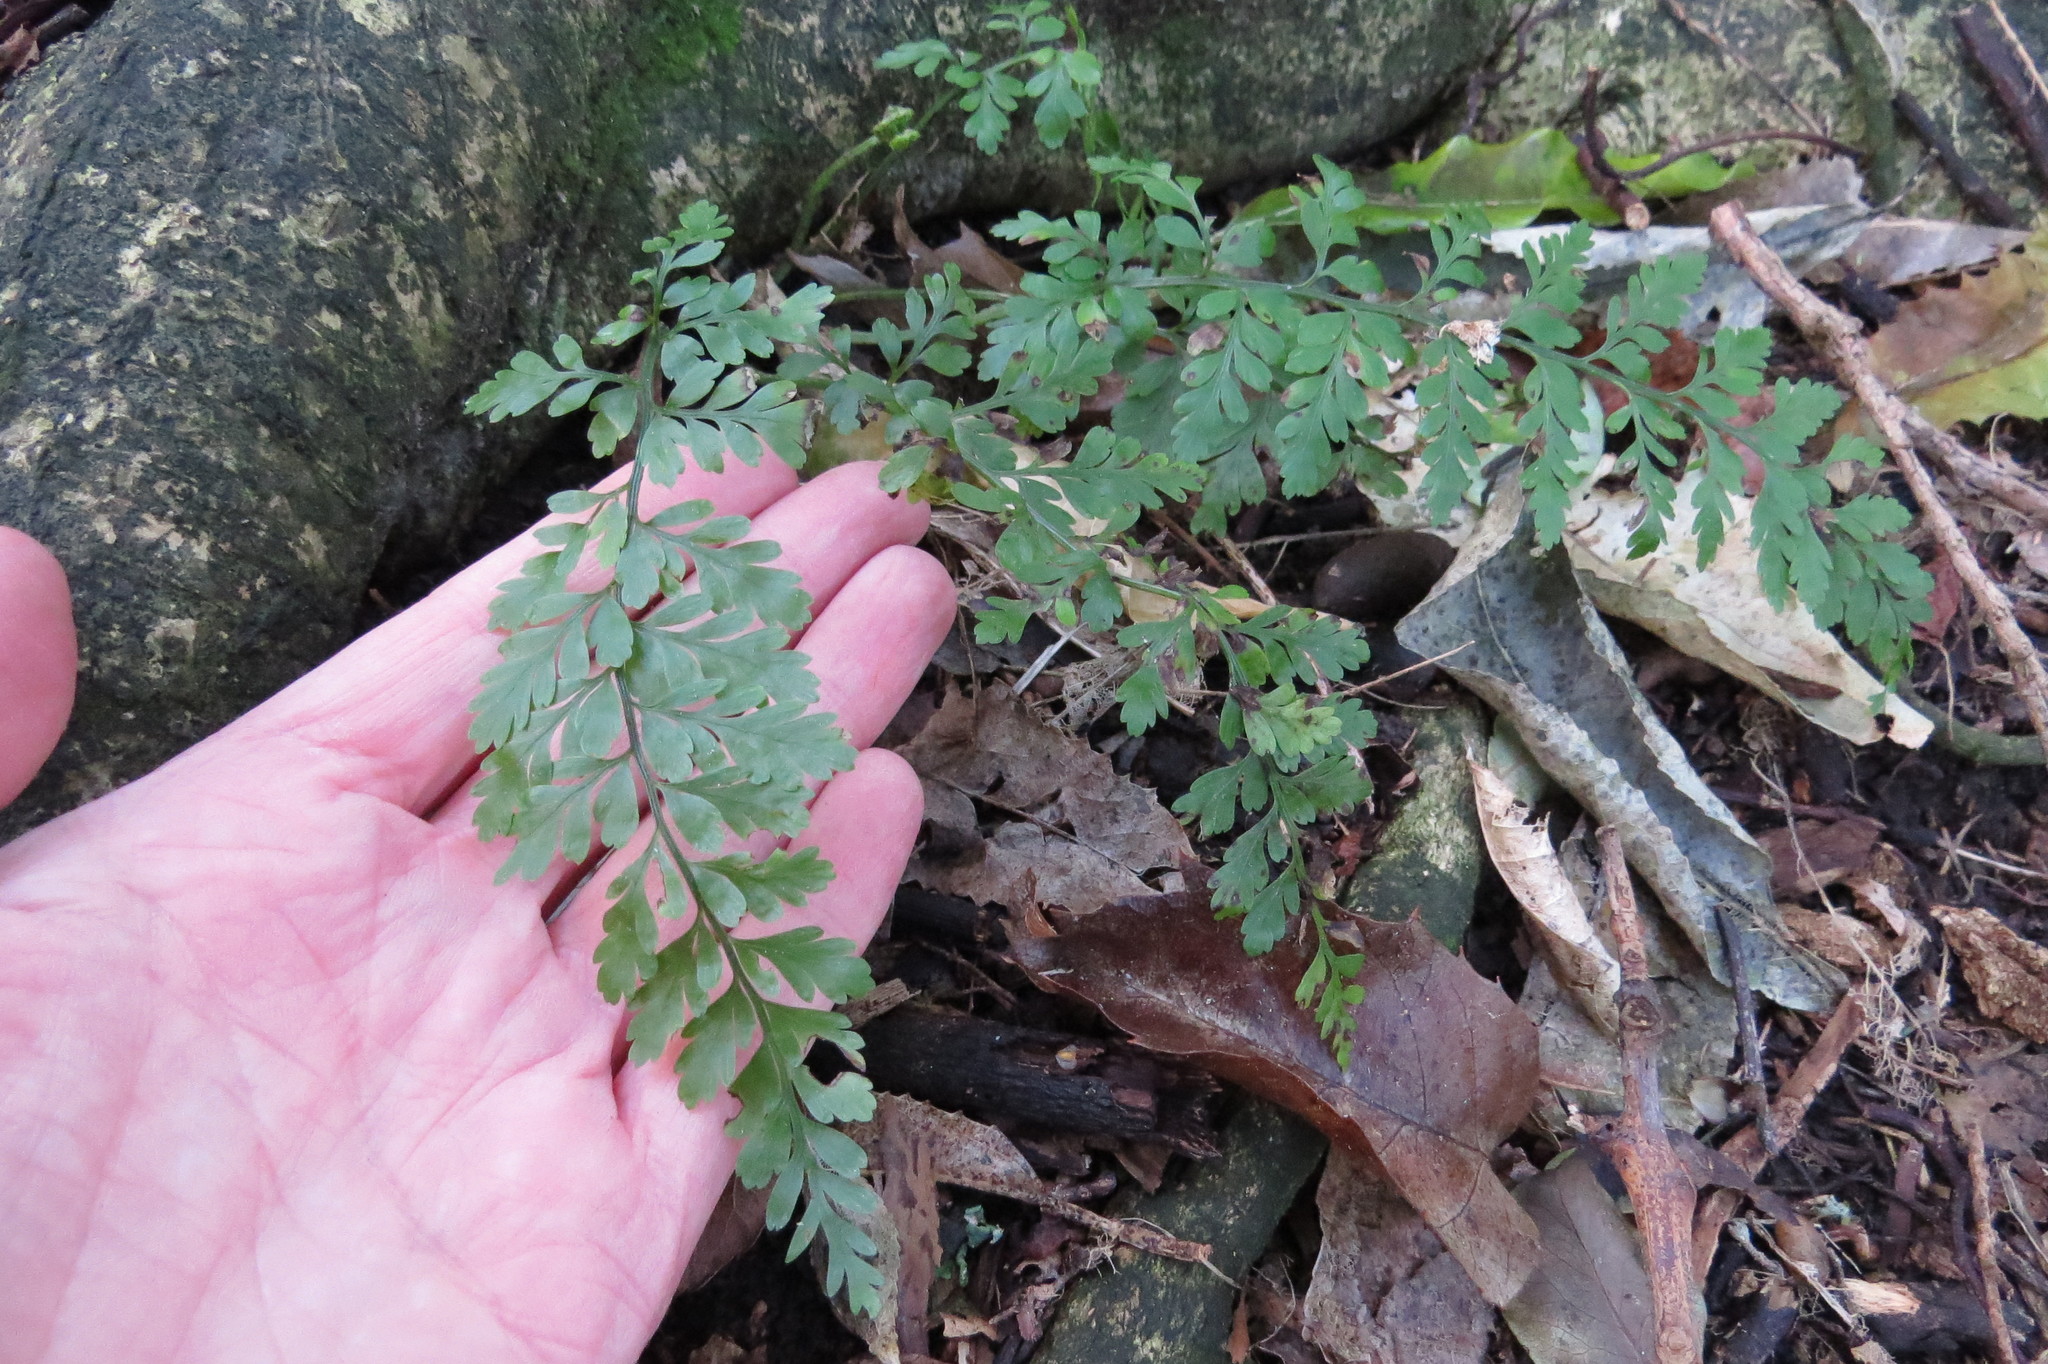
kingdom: Plantae
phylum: Tracheophyta
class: Polypodiopsida
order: Polypodiales
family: Aspleniaceae
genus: Asplenium
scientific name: Asplenium
